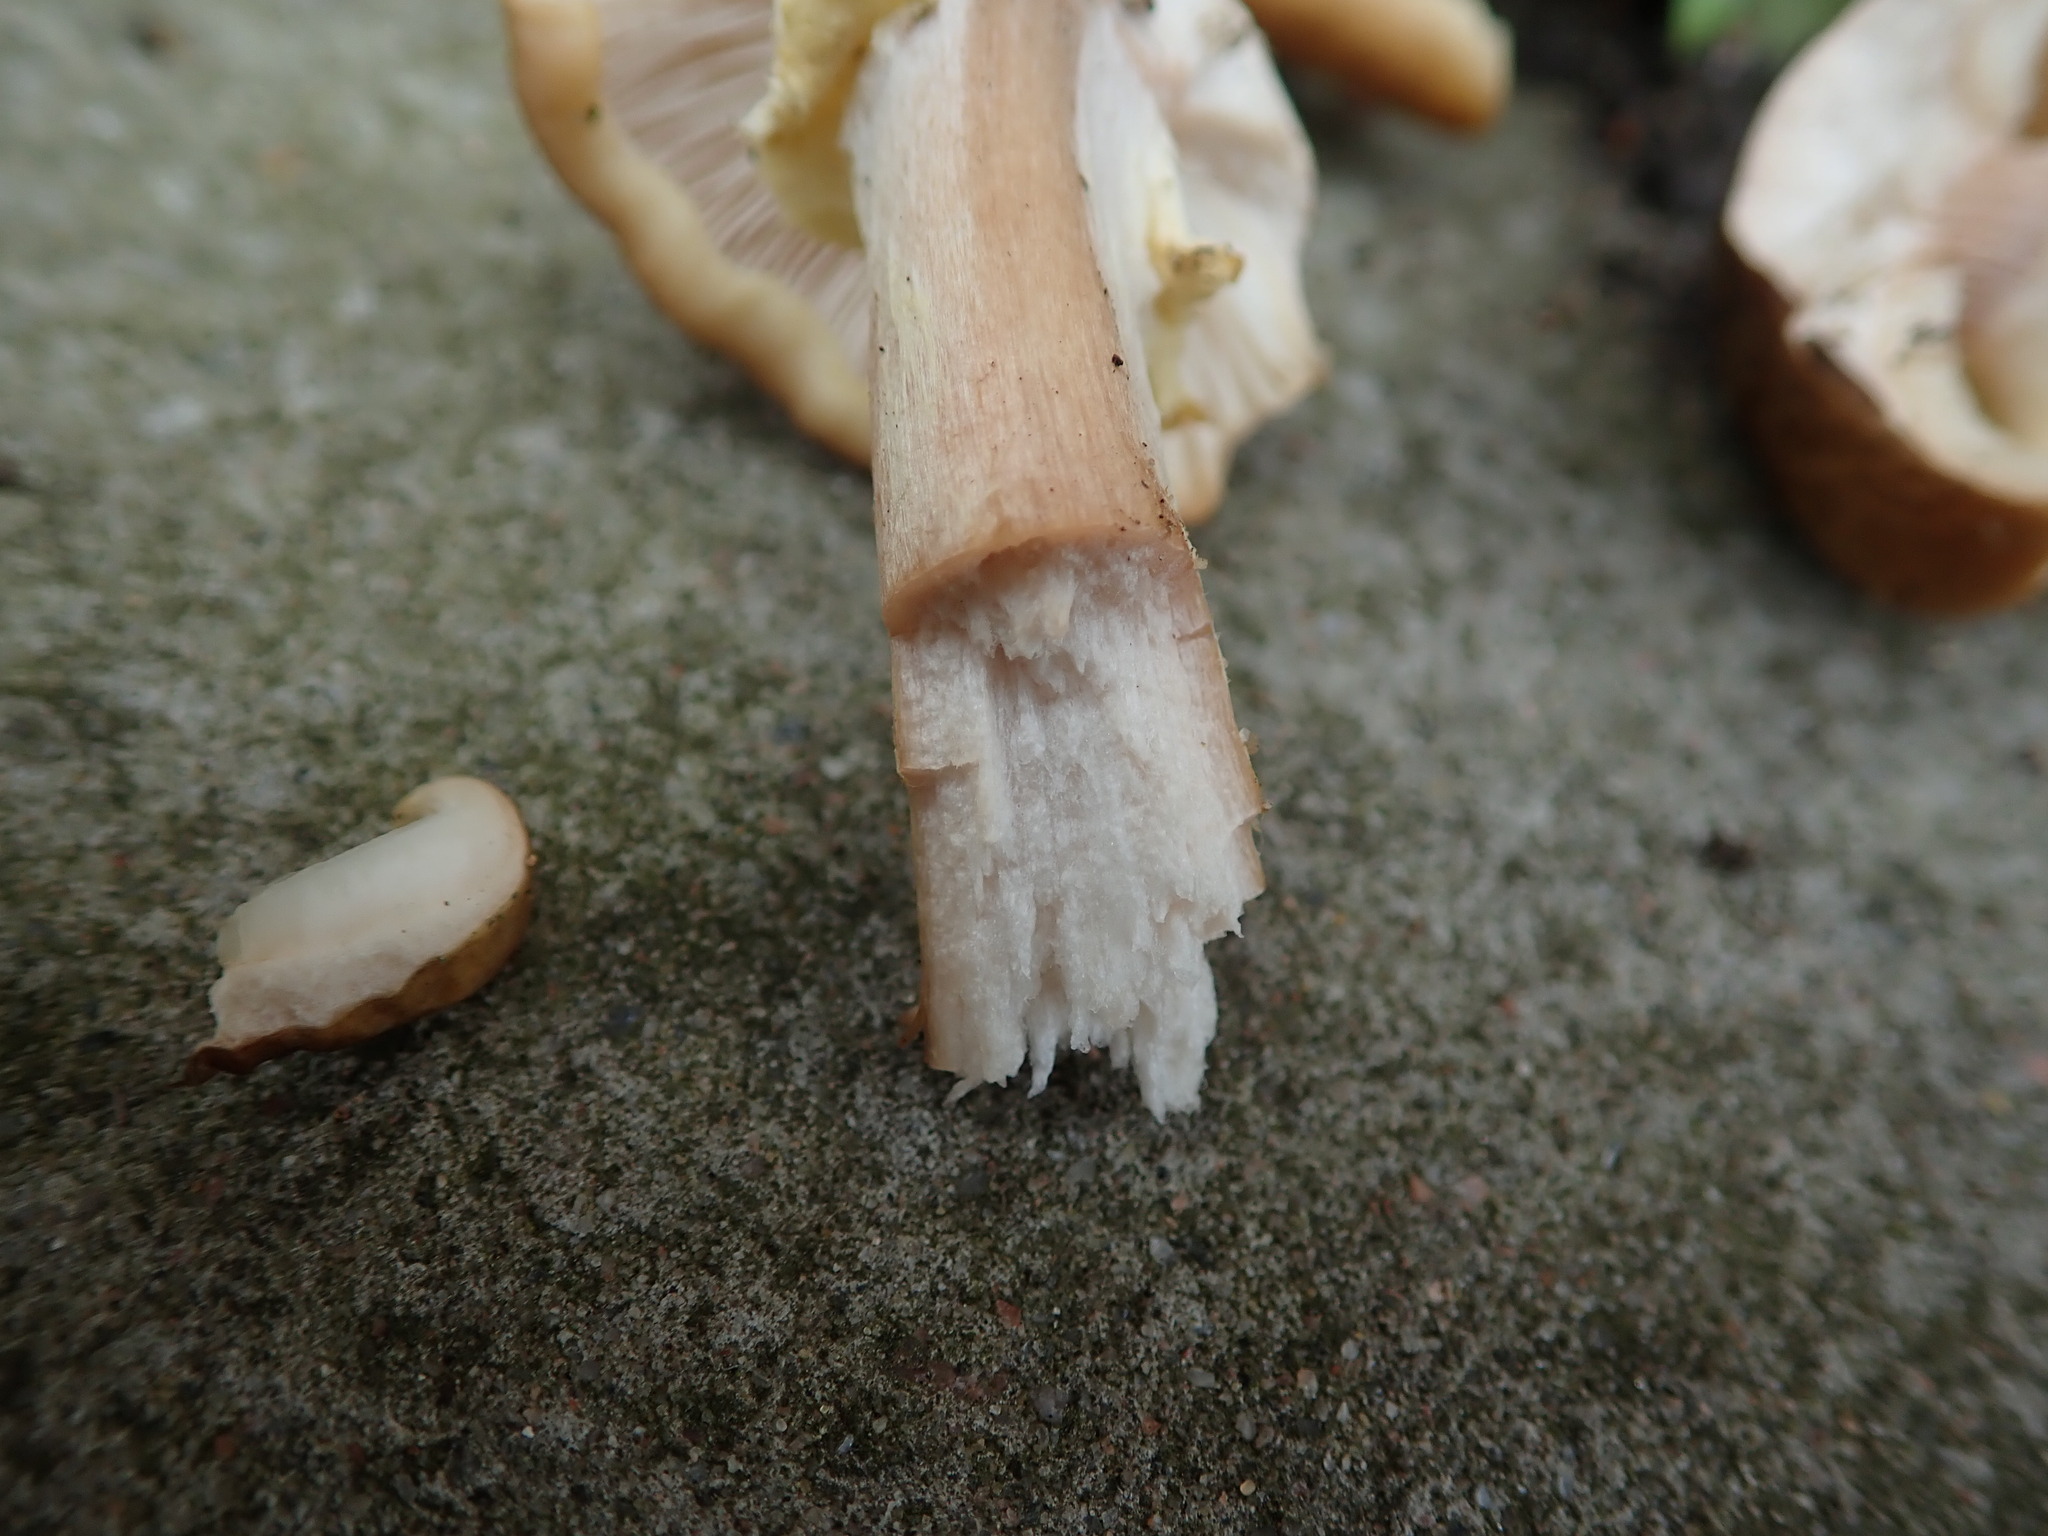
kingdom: Fungi
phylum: Basidiomycota
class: Agaricomycetes
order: Agaricales
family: Physalacriaceae
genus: Armillaria
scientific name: Armillaria mellea
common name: Honey fungus
